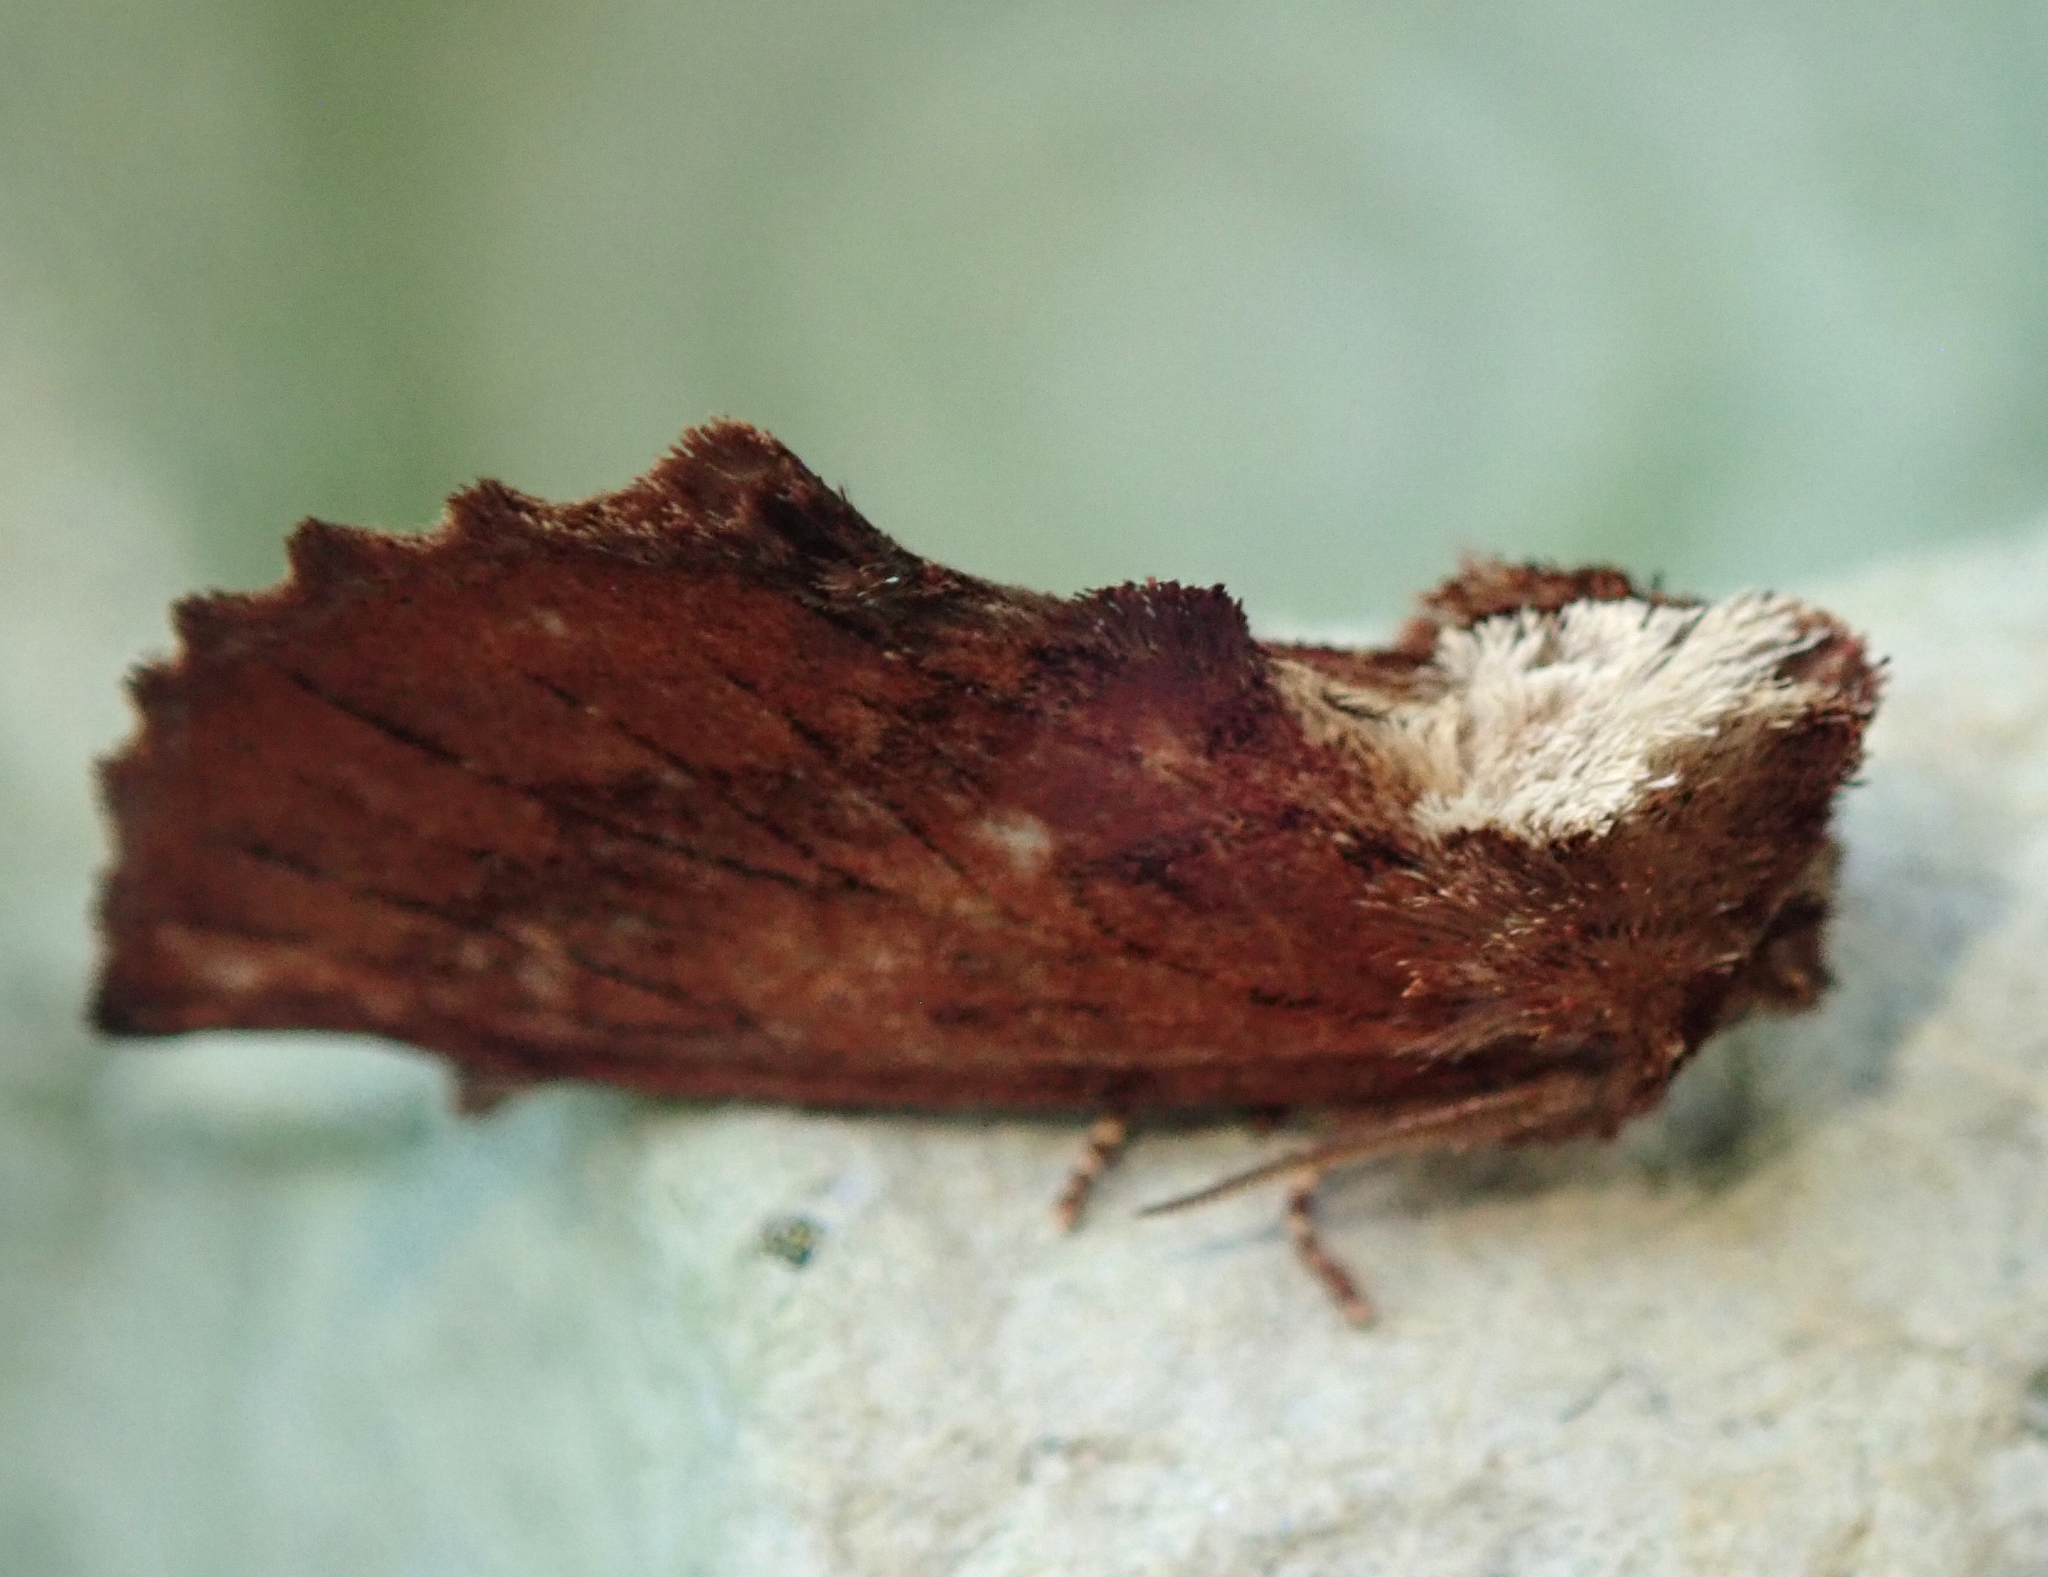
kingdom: Animalia
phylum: Arthropoda
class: Insecta
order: Lepidoptera
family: Notodontidae
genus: Ptilodon
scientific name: Ptilodon capucina
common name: Coxcomb prominent
